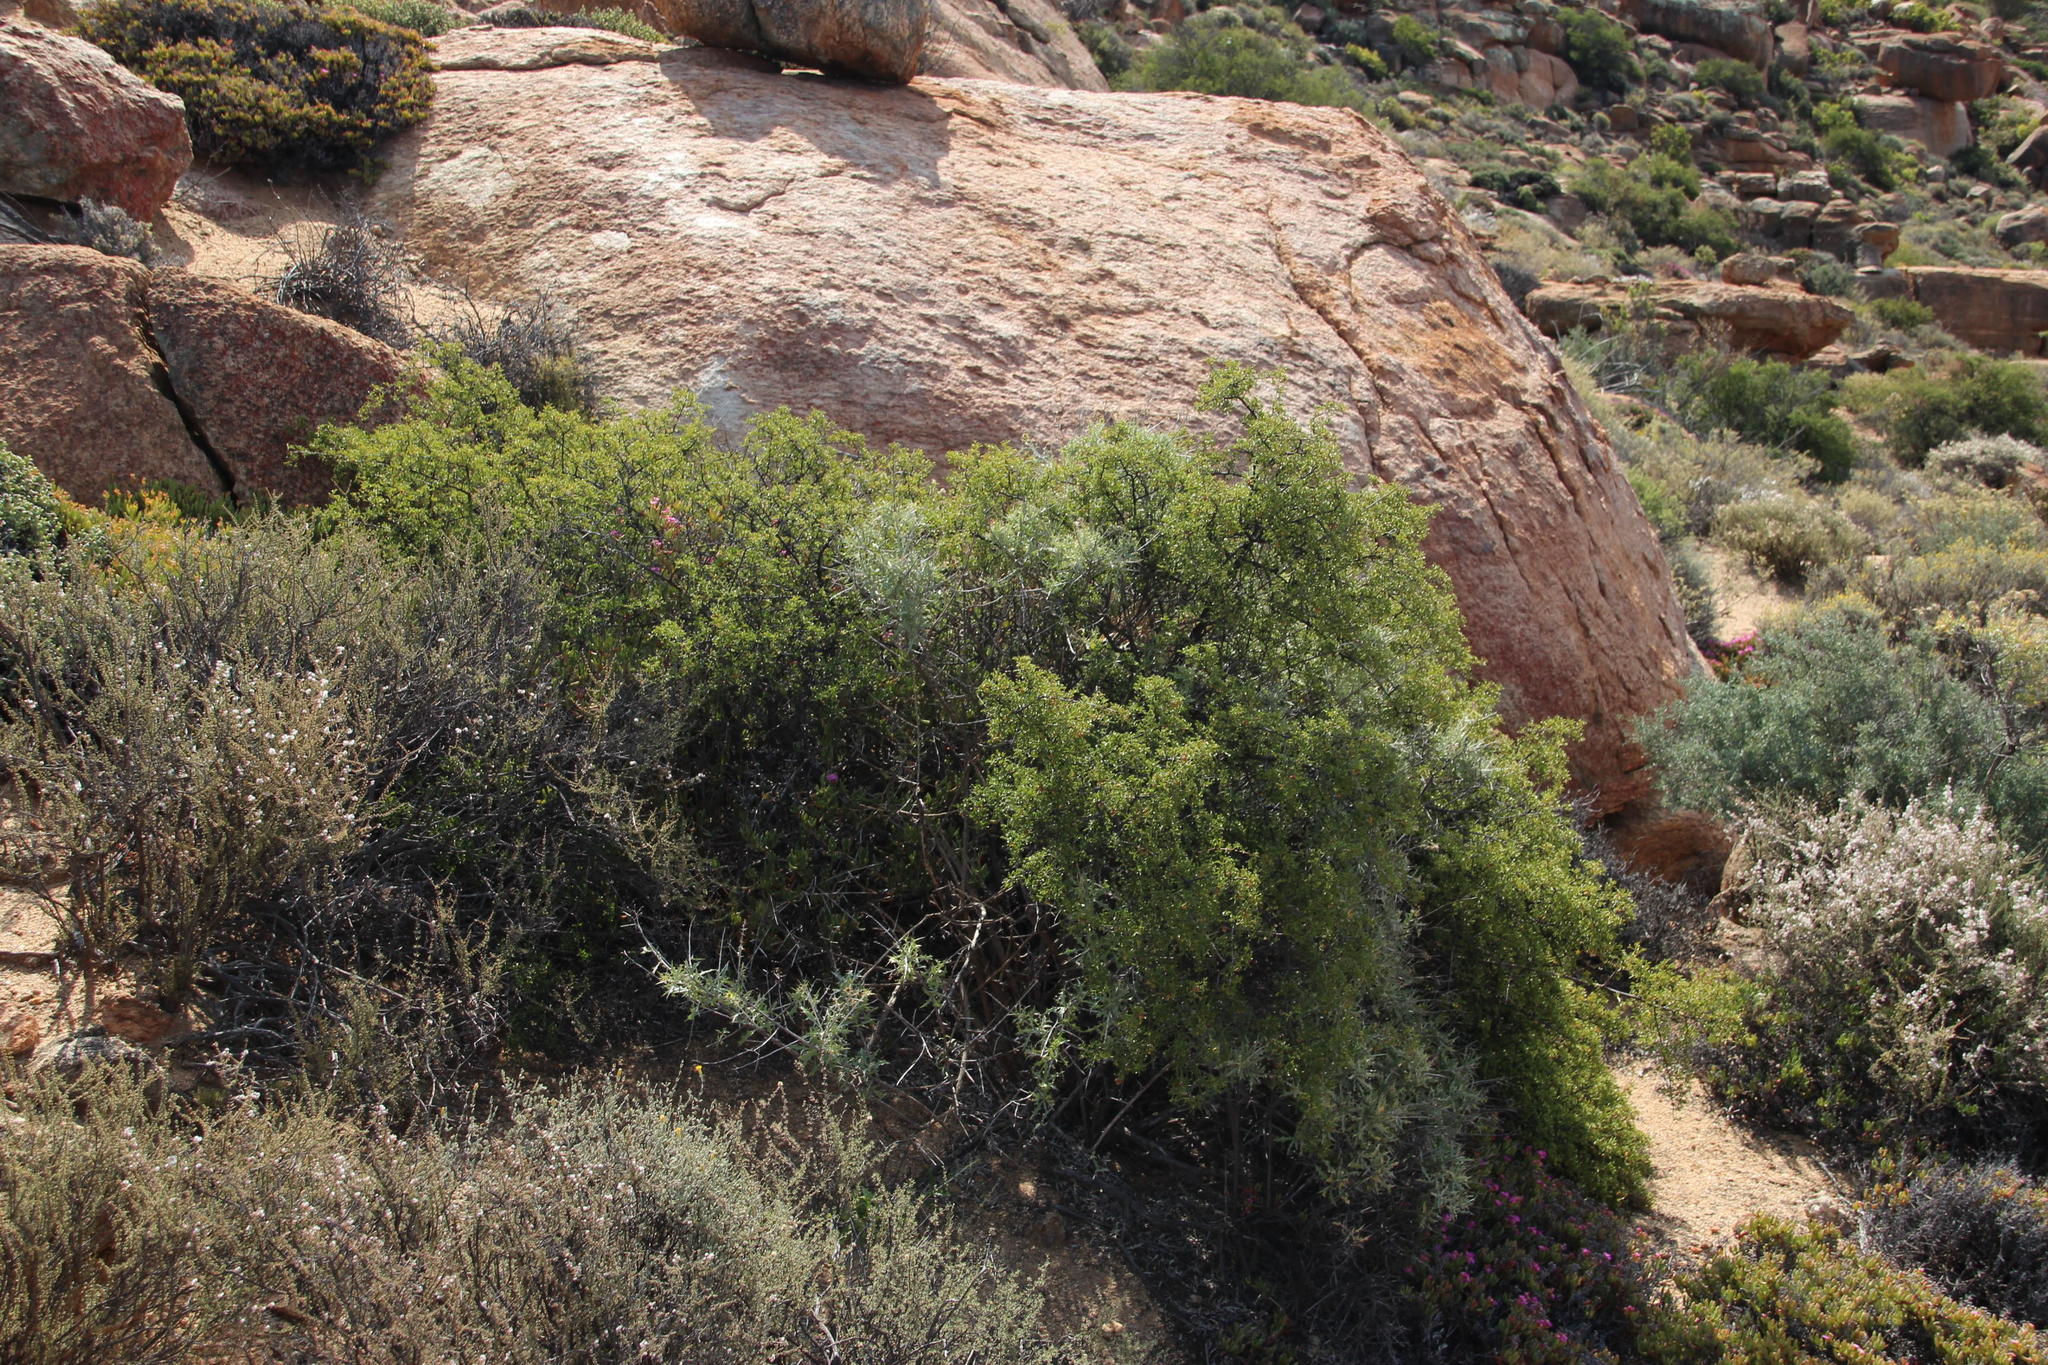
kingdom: Plantae
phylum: Tracheophyta
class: Magnoliopsida
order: Sapindales
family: Anacardiaceae
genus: Searsia
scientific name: Searsia undulata
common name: Namaqua kunibush
